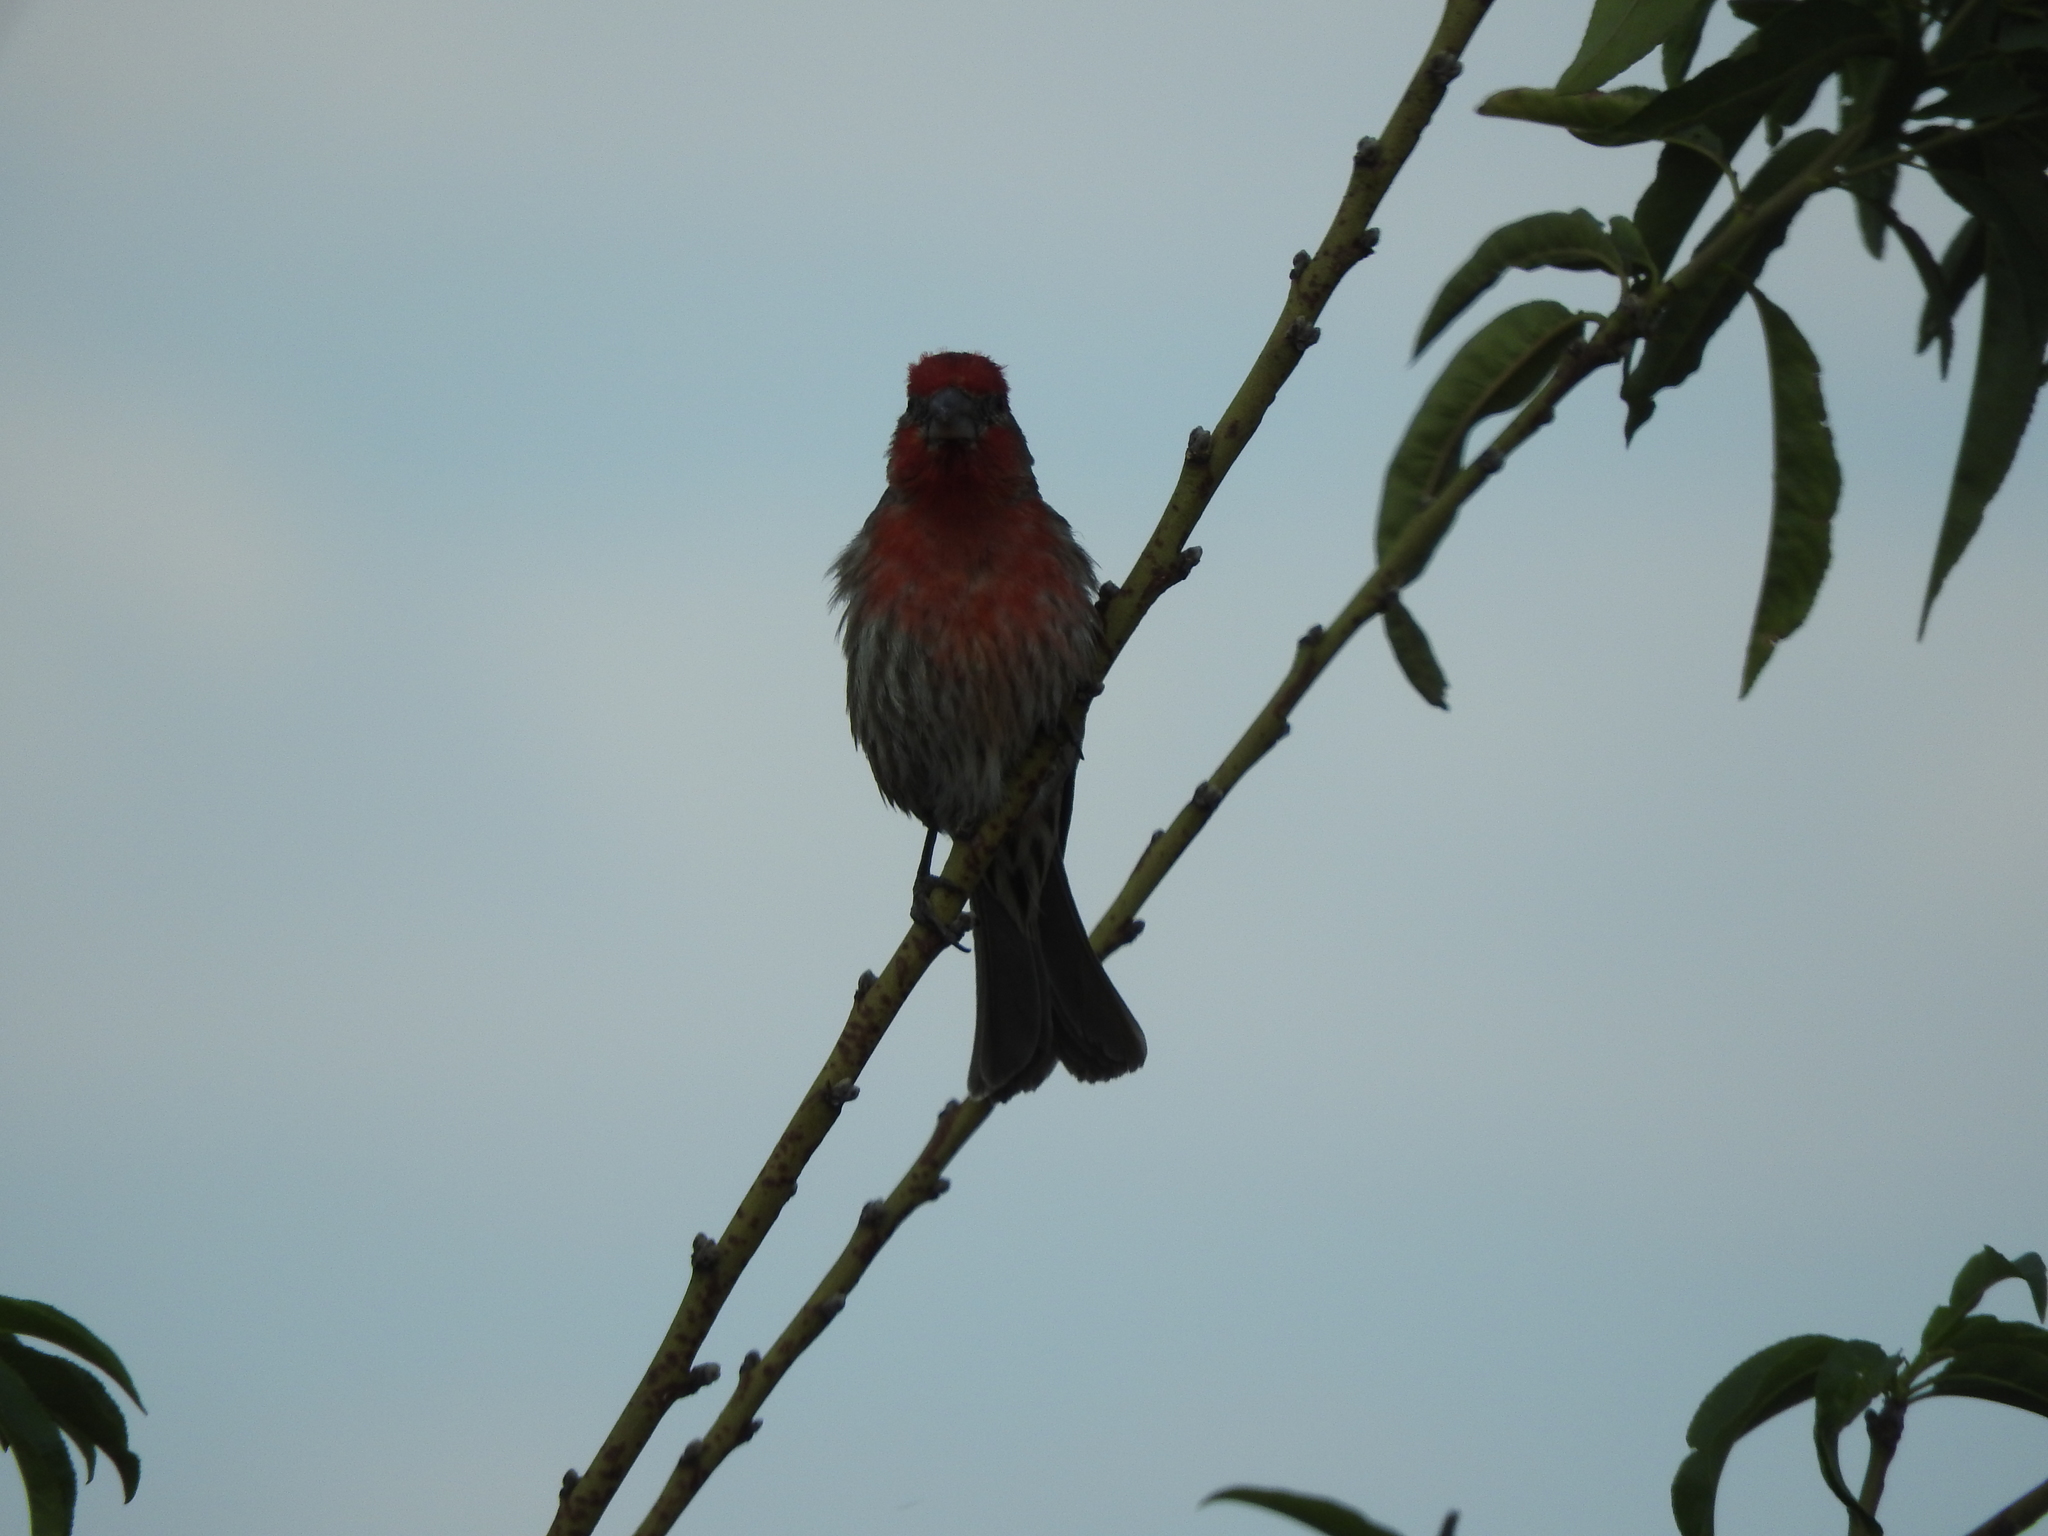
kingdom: Animalia
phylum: Chordata
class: Aves
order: Passeriformes
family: Fringillidae
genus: Haemorhous
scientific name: Haemorhous mexicanus
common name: House finch
